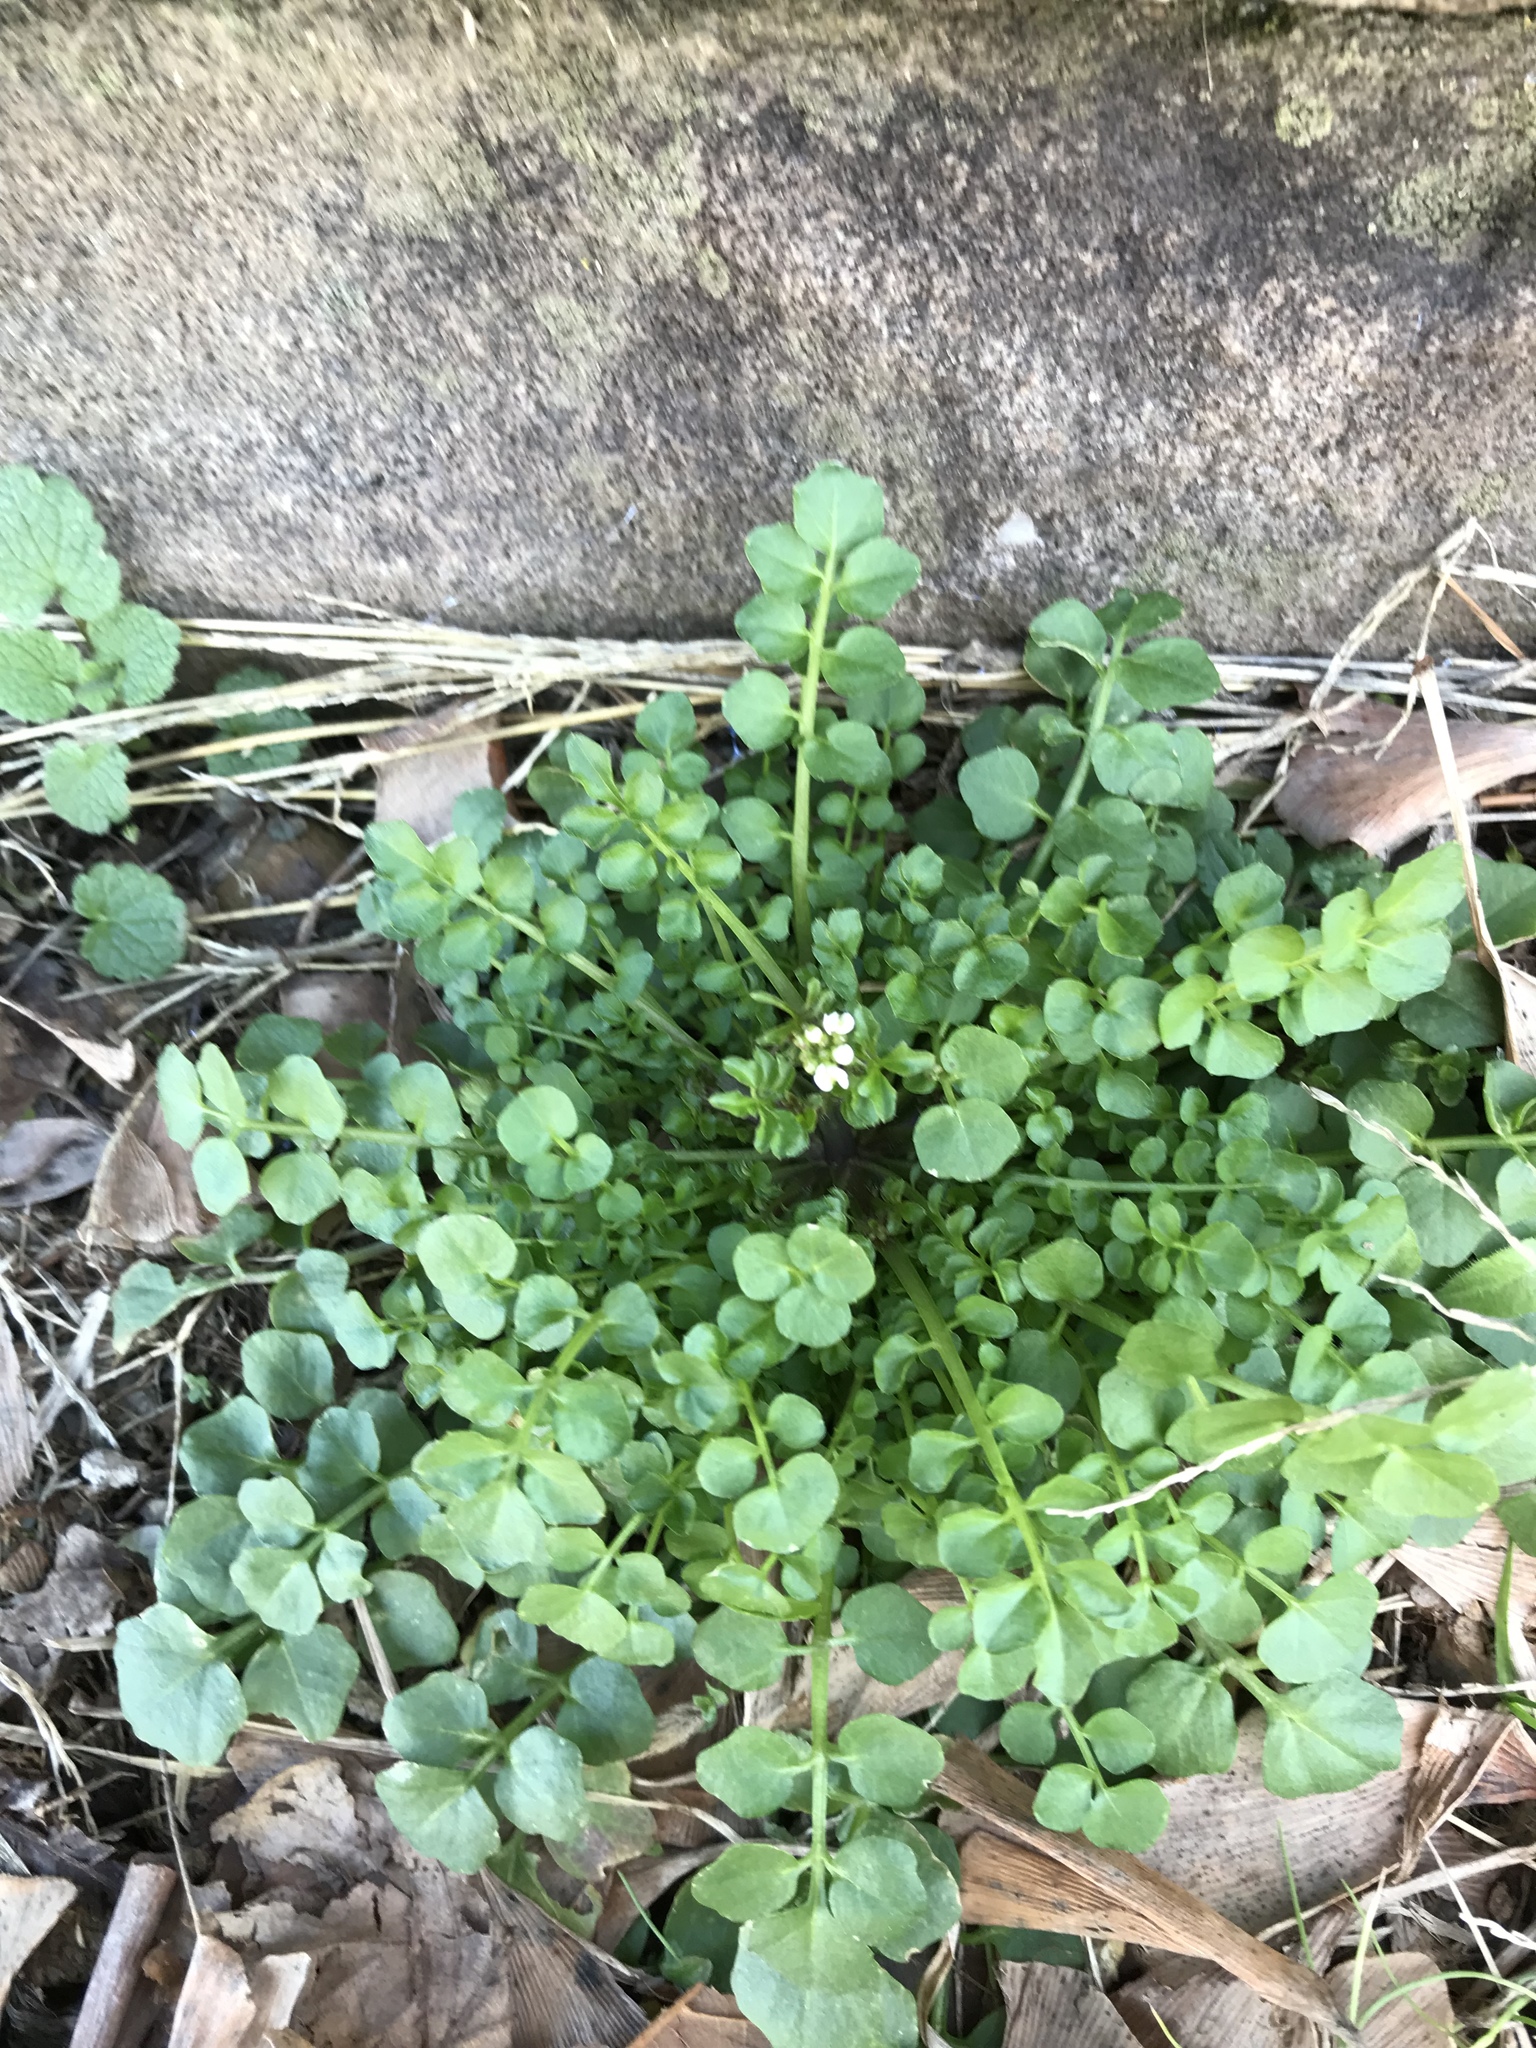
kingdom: Plantae
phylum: Tracheophyta
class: Magnoliopsida
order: Brassicales
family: Brassicaceae
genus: Cardamine
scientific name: Cardamine hirsuta
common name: Hairy bittercress
